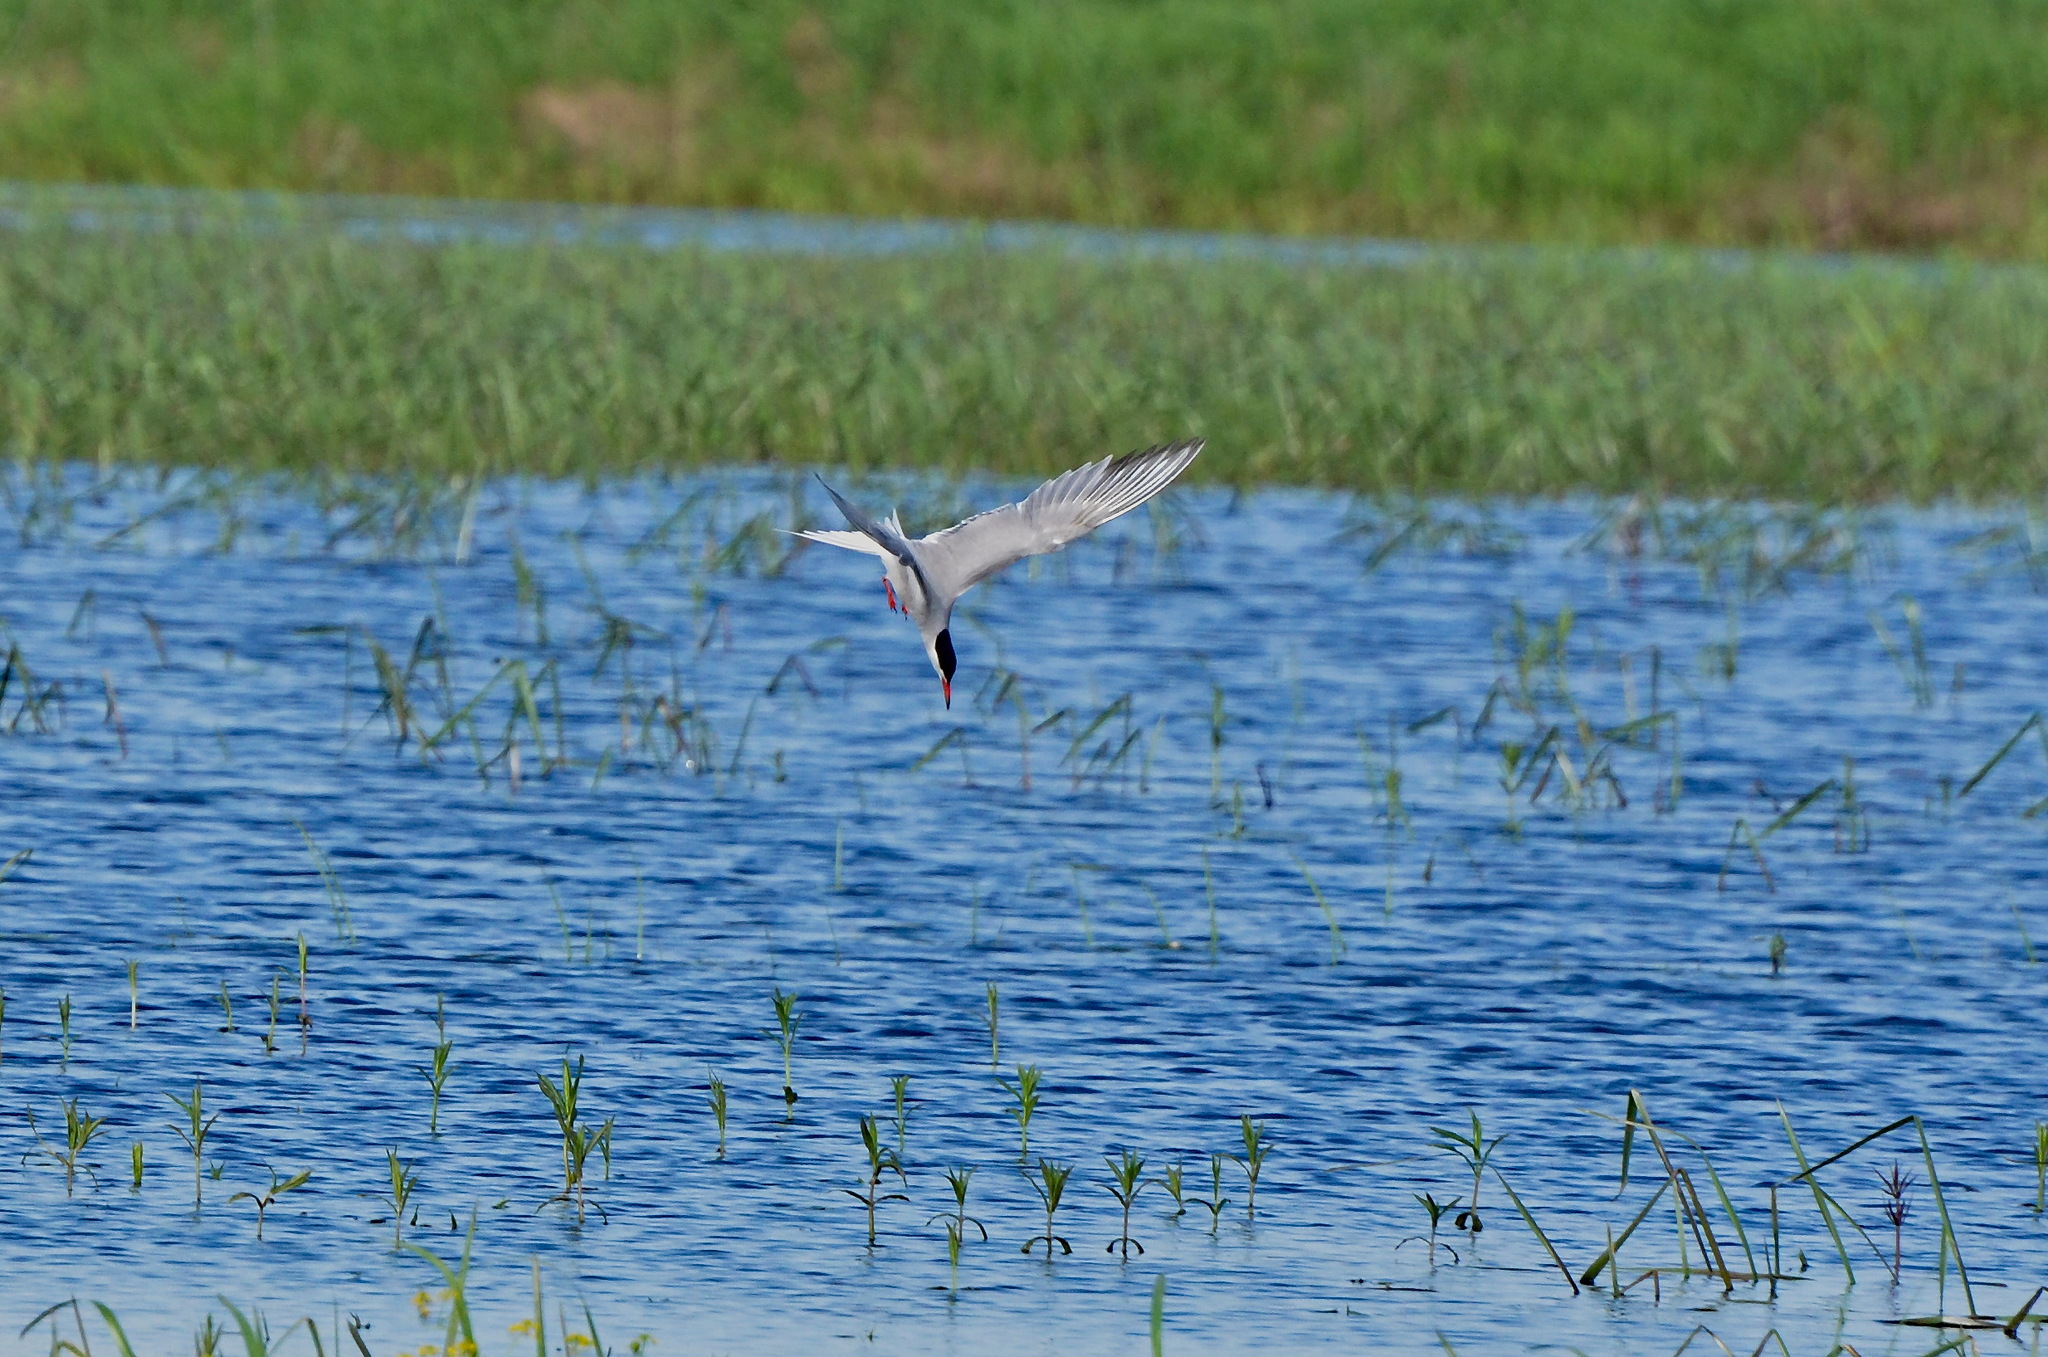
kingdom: Animalia
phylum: Chordata
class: Aves
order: Charadriiformes
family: Laridae
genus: Sterna
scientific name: Sterna hirundo
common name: Common tern
